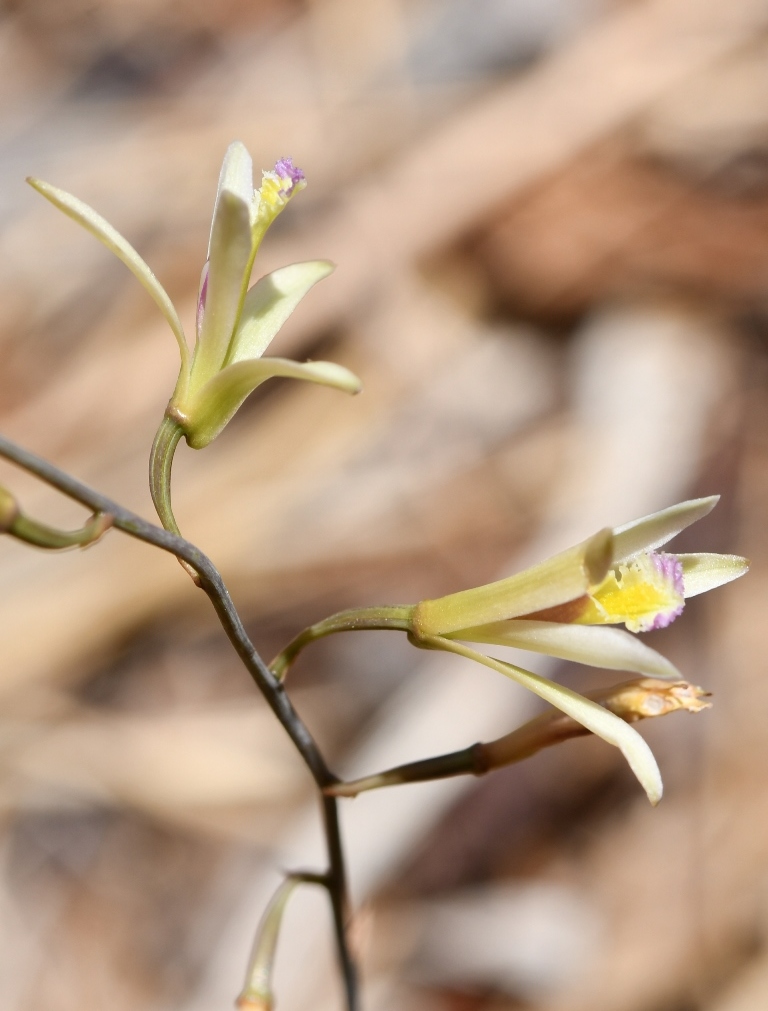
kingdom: Plantae
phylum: Tracheophyta
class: Liliopsida
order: Asparagales
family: Orchidaceae
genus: Bletia
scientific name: Bletia parkinsonii
